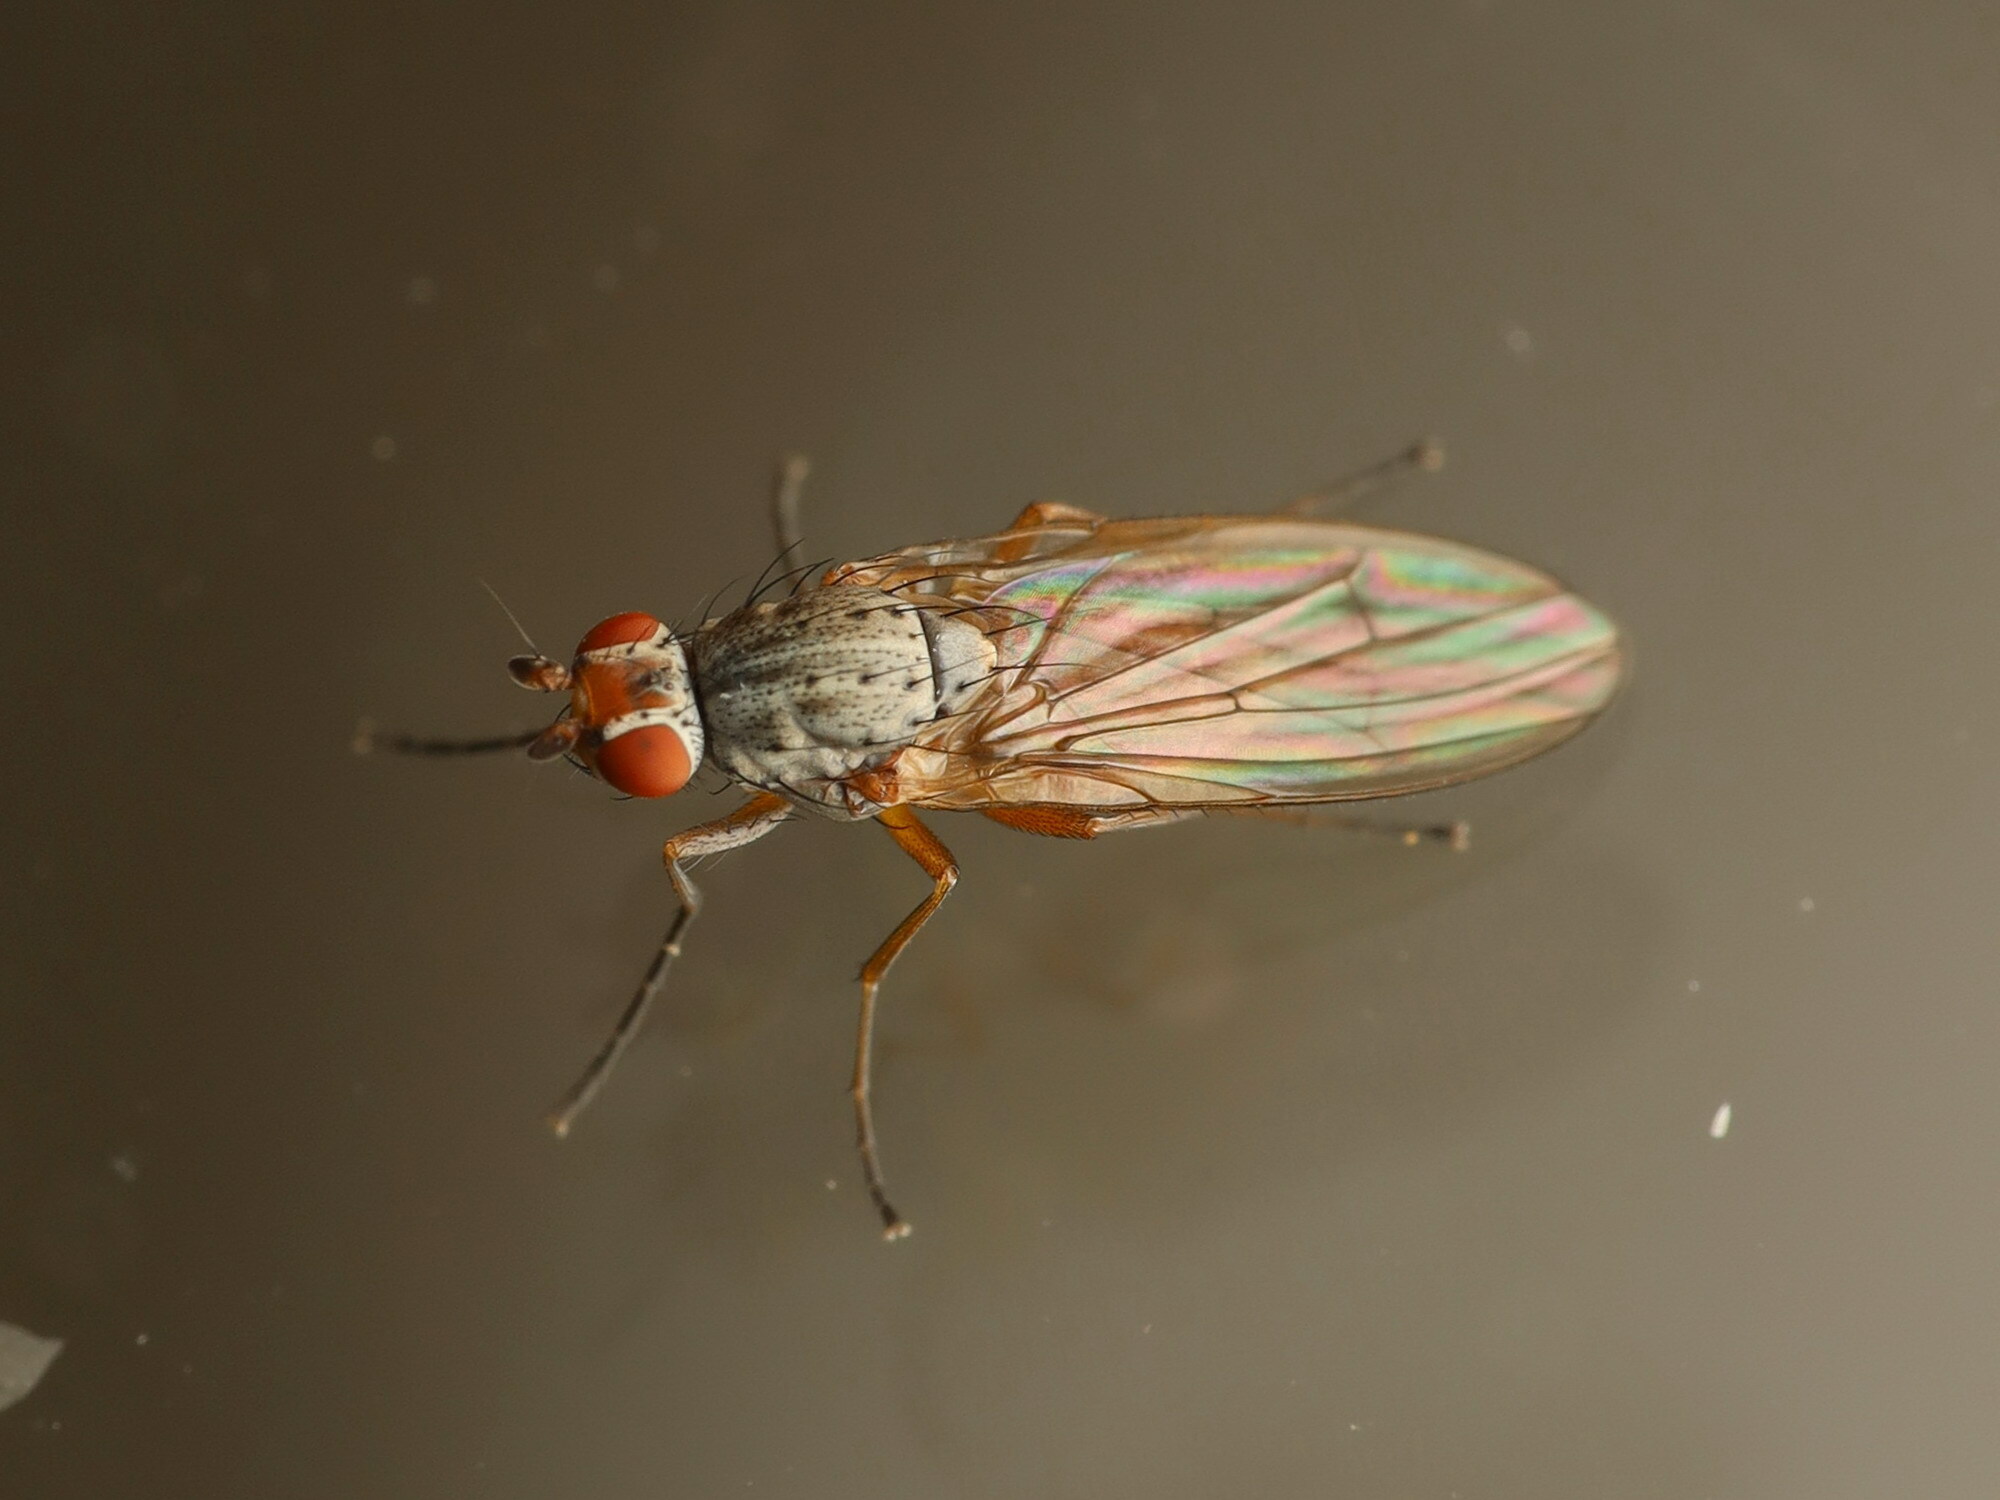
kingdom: Animalia
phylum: Arthropoda
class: Insecta
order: Diptera
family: Heleomyzidae
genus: Tephrochlamys
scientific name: Tephrochlamys rufiventris
